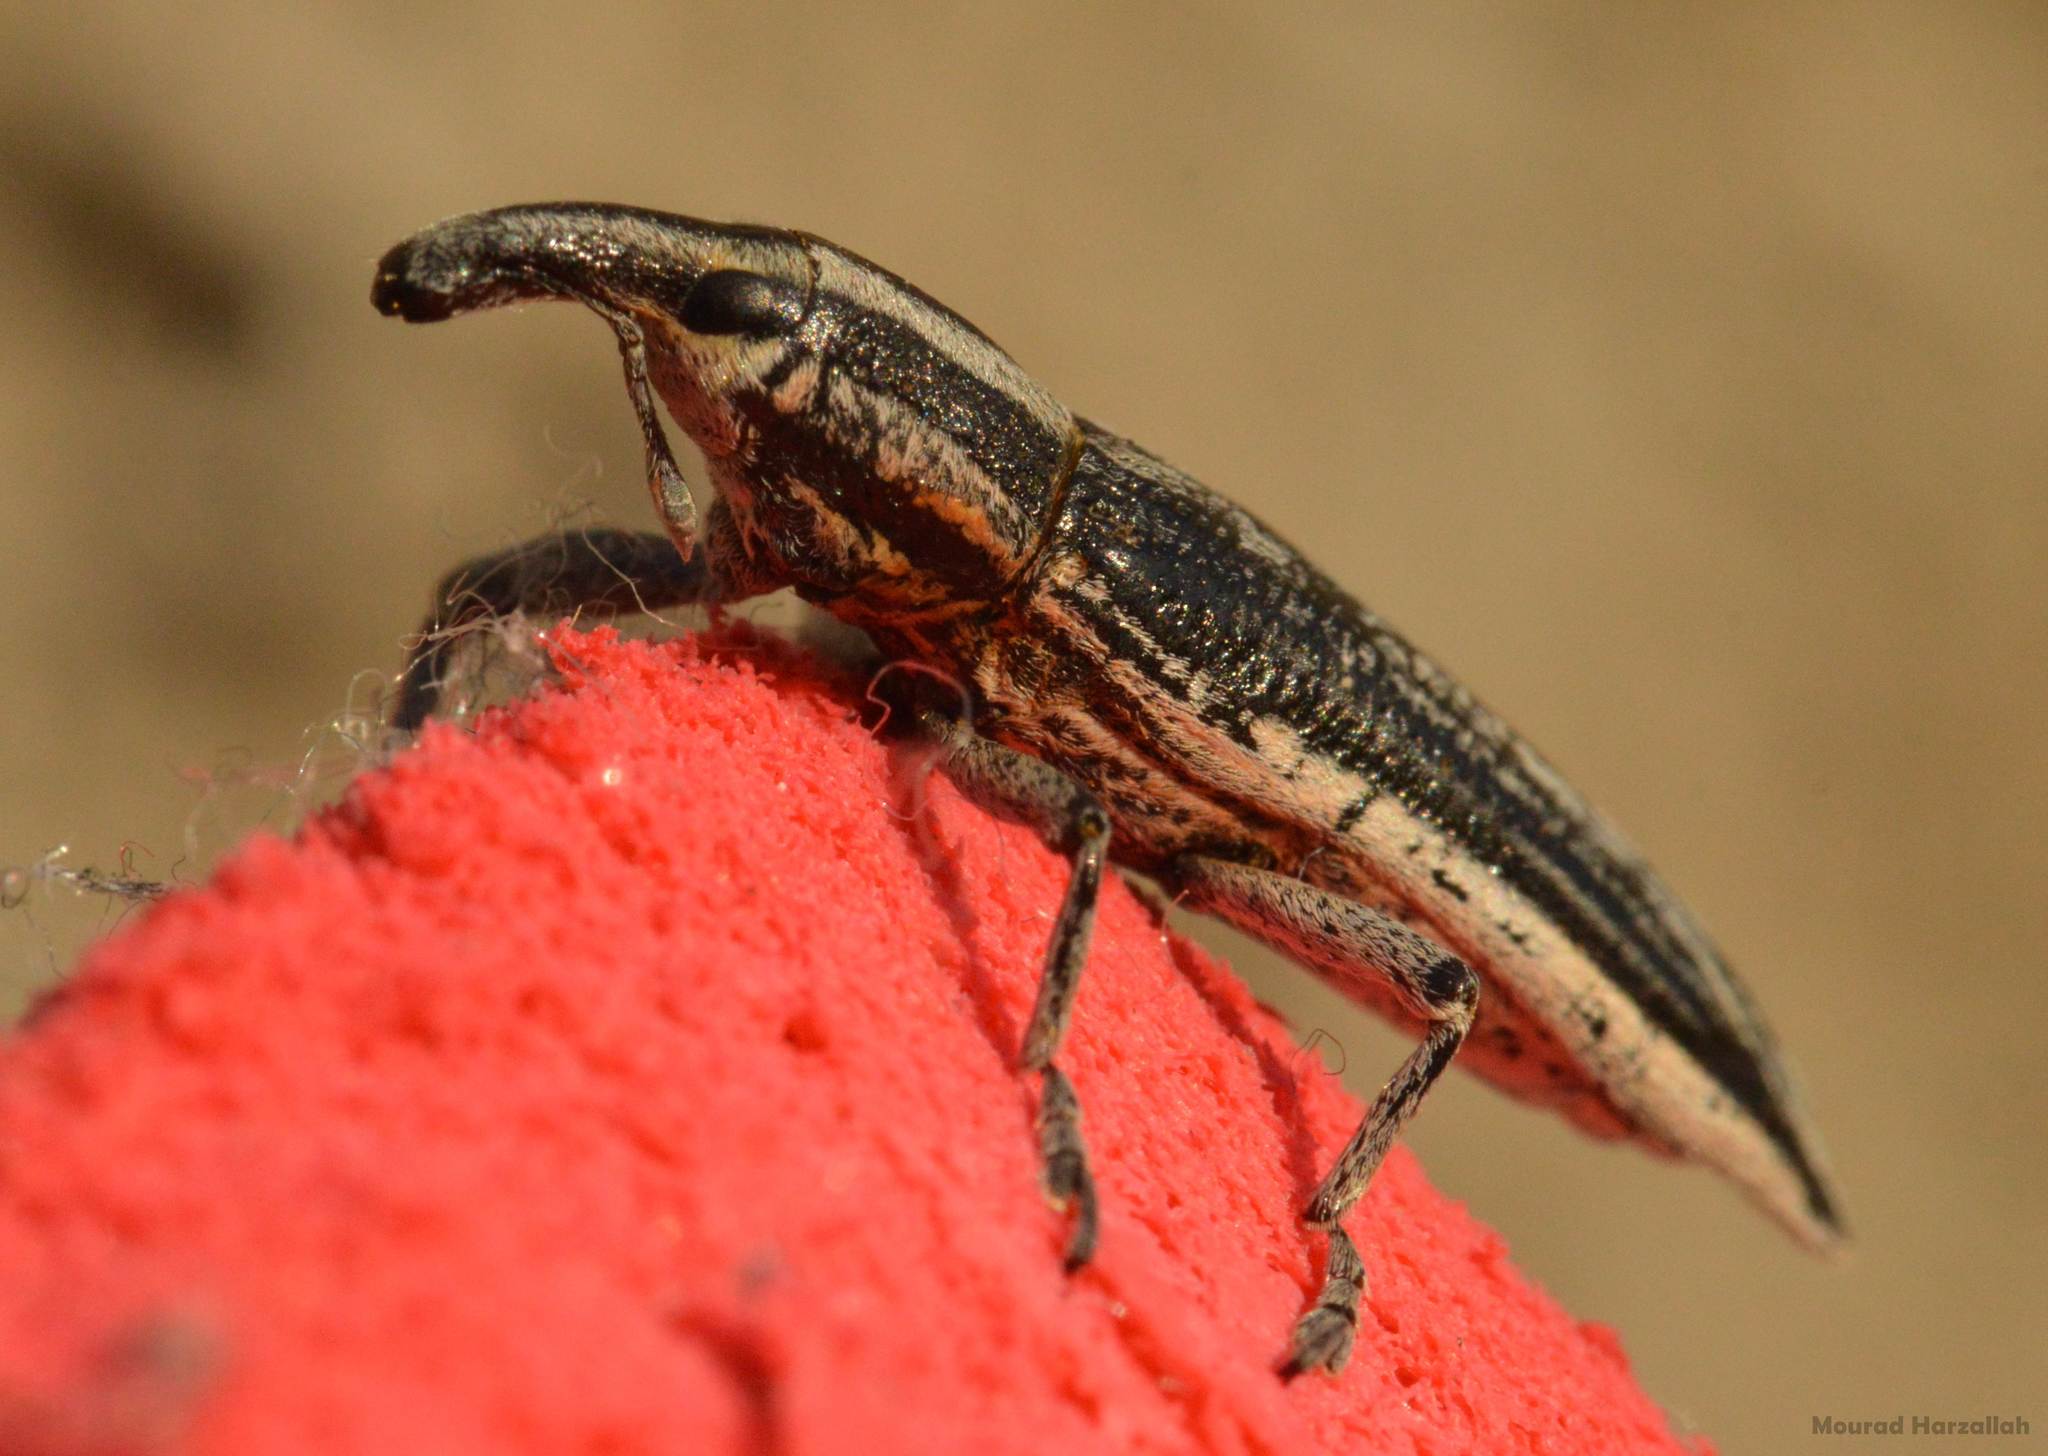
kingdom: Animalia
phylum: Arthropoda
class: Insecta
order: Coleoptera
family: Curculionidae
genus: Lixus
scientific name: Lixus anguinus
